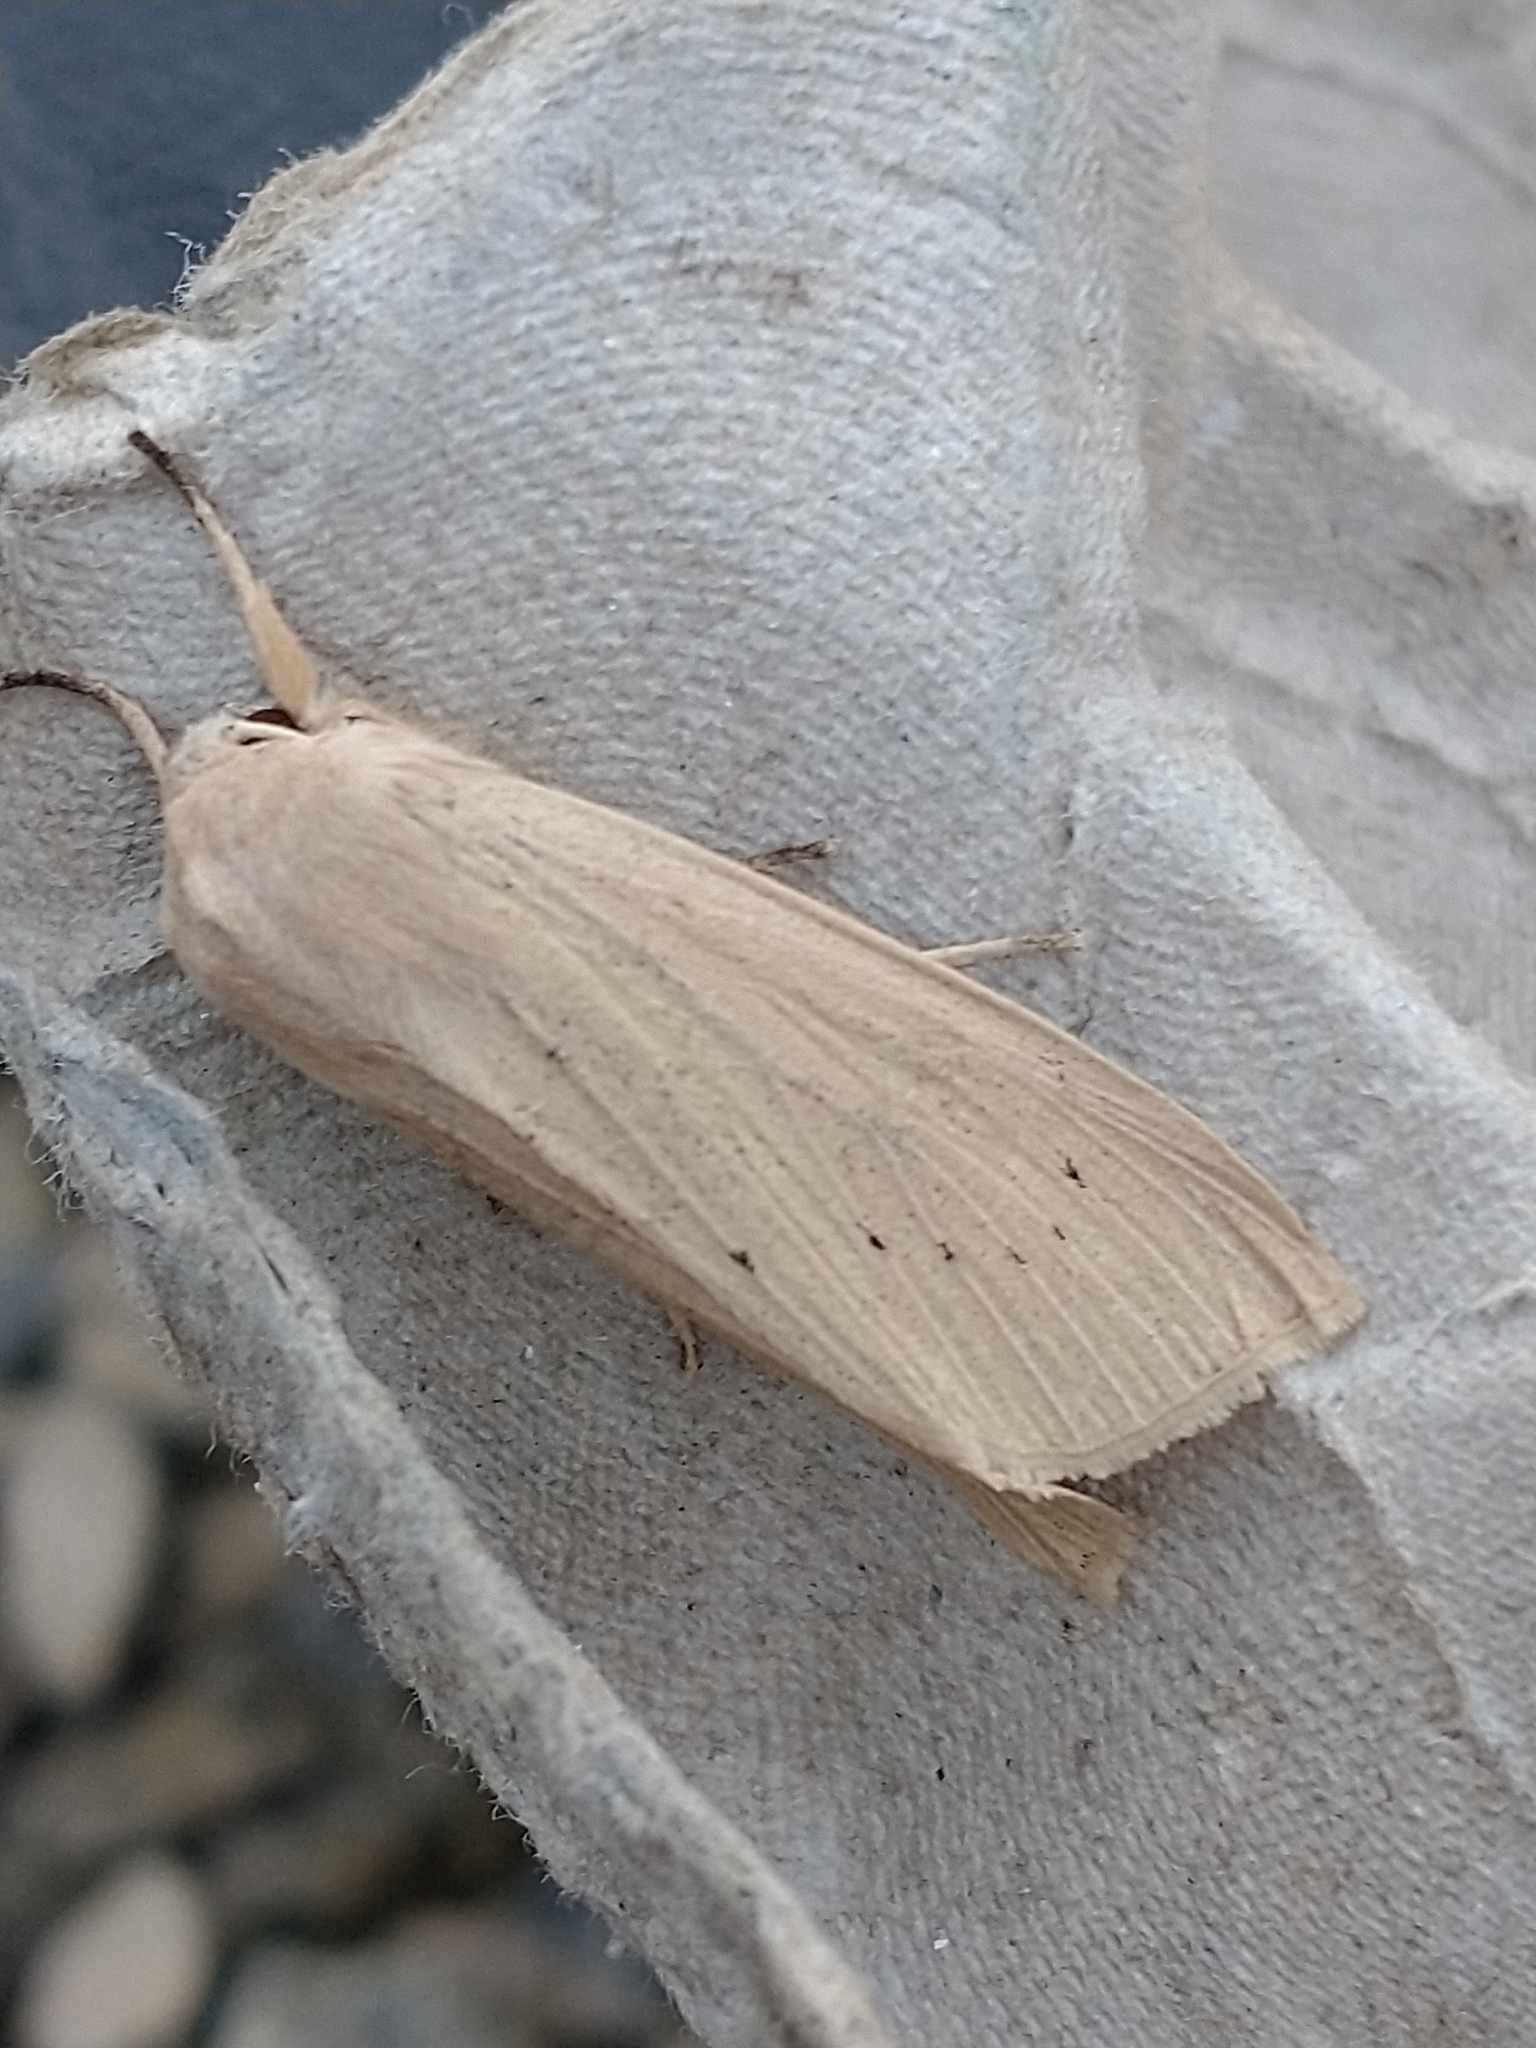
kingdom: Animalia
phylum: Arthropoda
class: Insecta
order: Lepidoptera
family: Noctuidae
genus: Rhizedra
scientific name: Rhizedra lutosa
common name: Large wainscot
